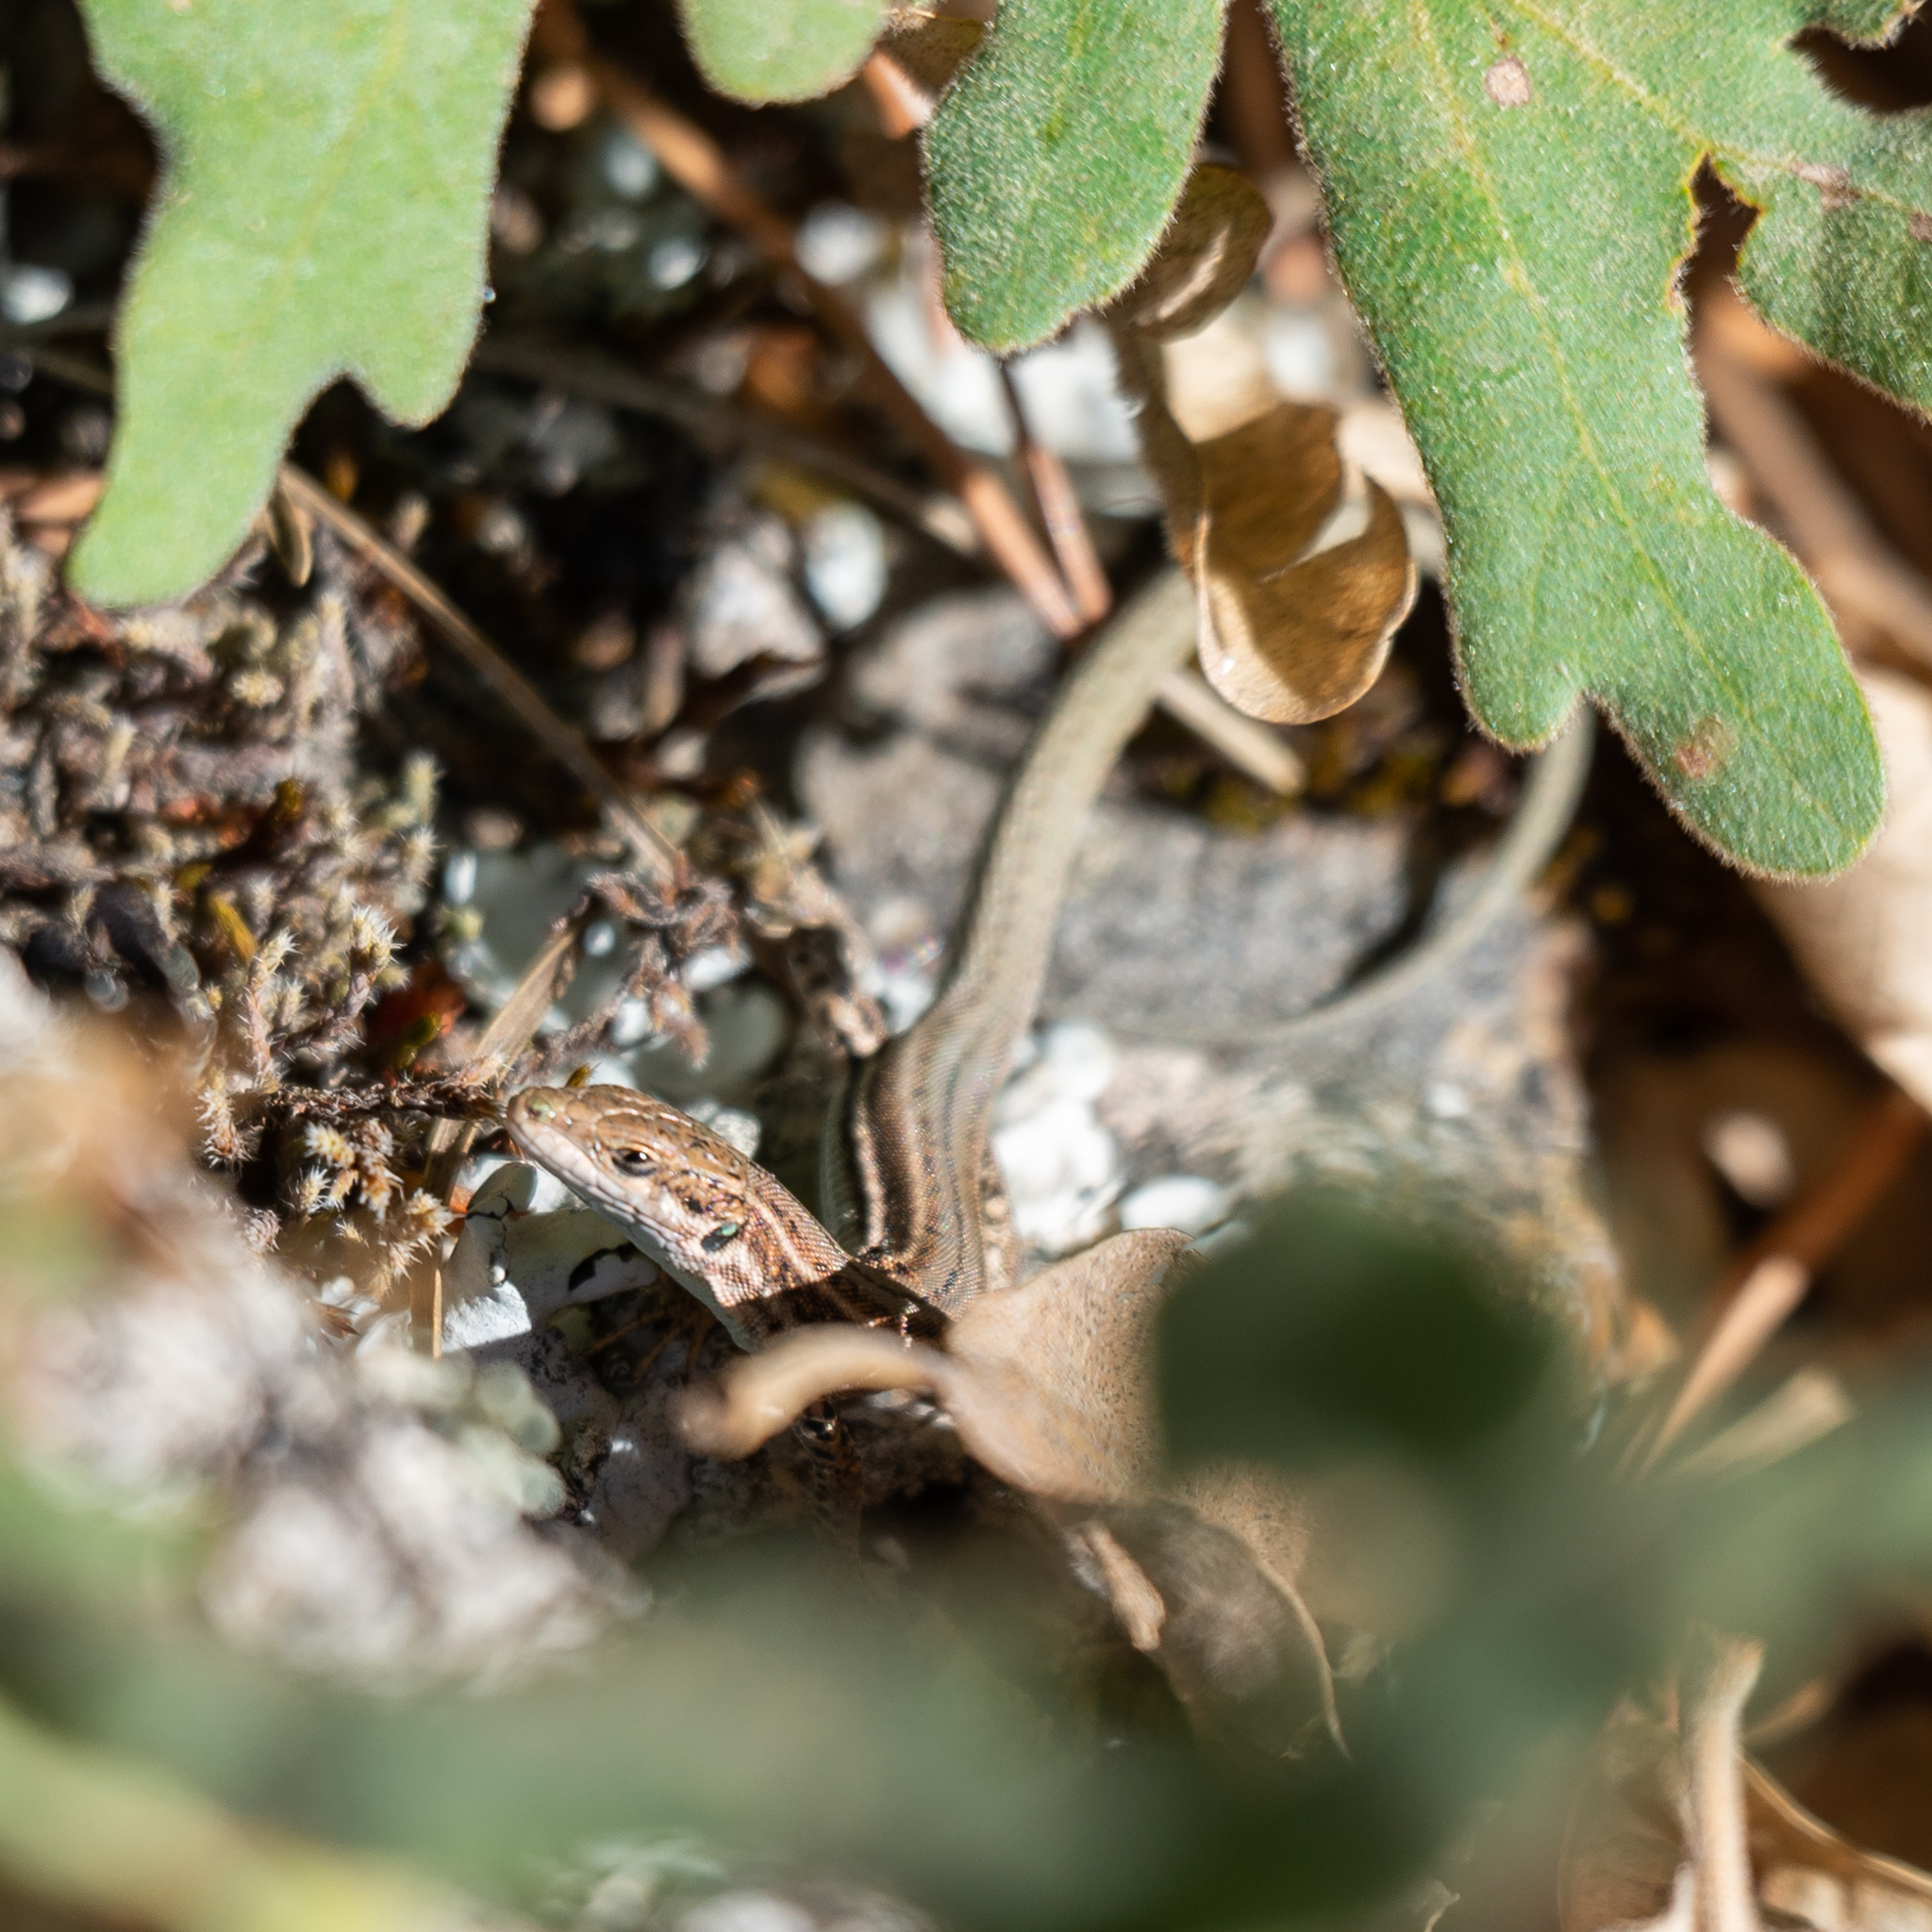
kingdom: Animalia
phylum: Chordata
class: Squamata
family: Lacertidae
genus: Podarcis
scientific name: Podarcis liolepis
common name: Catalonian wall lizard
